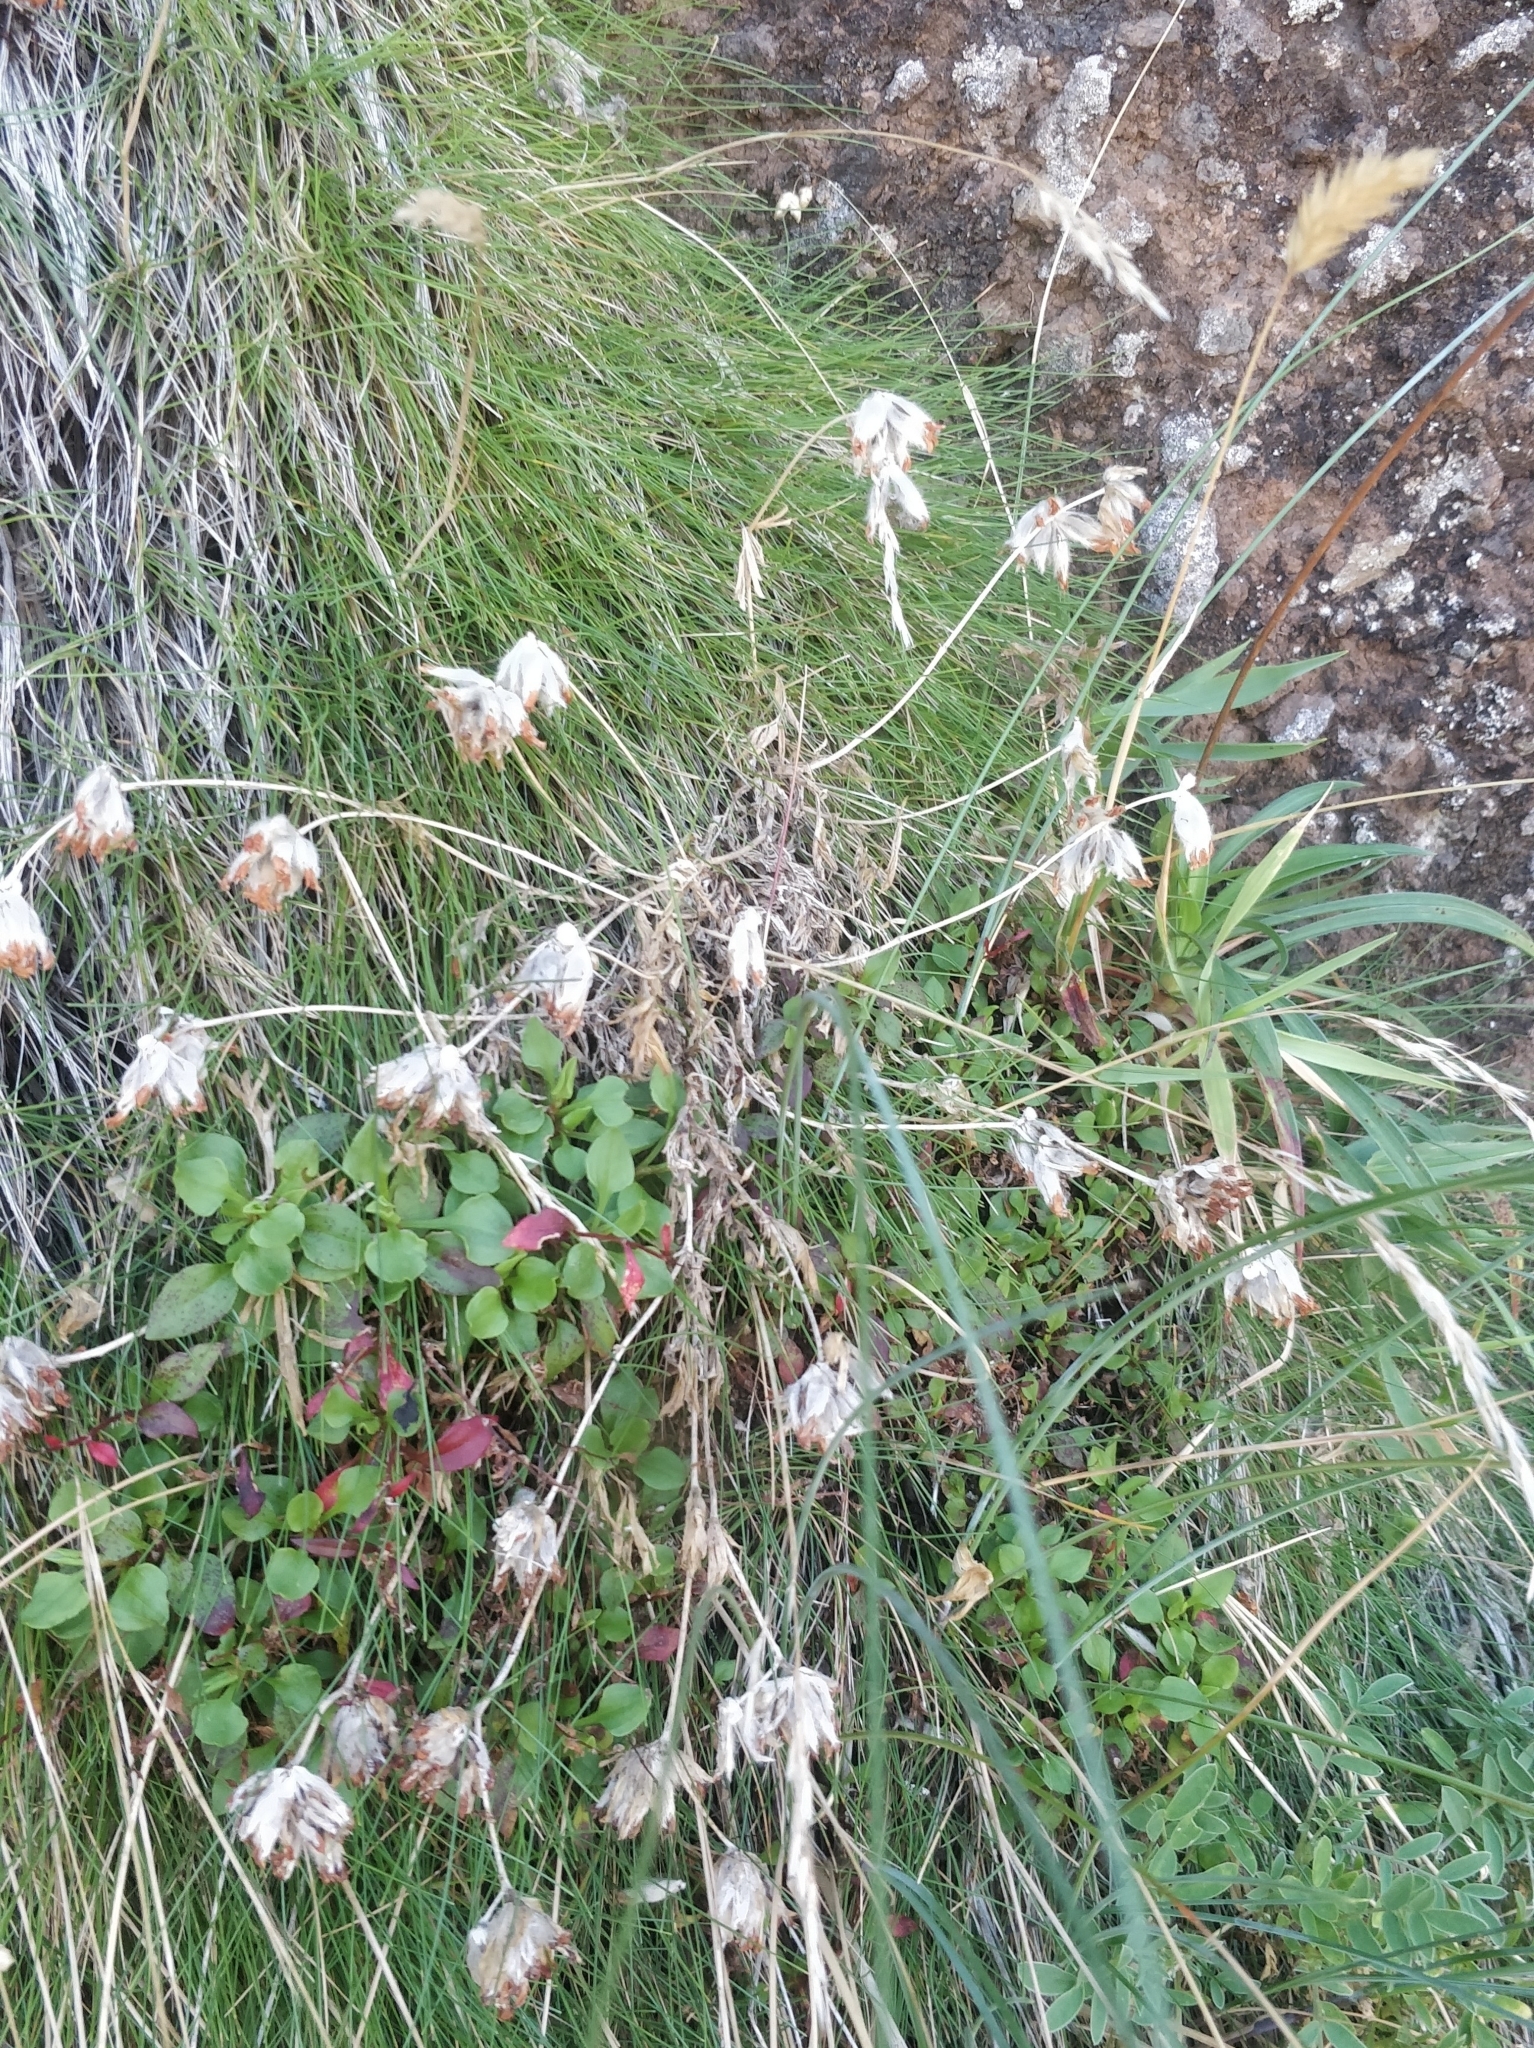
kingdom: Plantae
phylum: Tracheophyta
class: Magnoliopsida
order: Fabales
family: Fabaceae
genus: Anthyllis
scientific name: Anthyllis lemanniana
